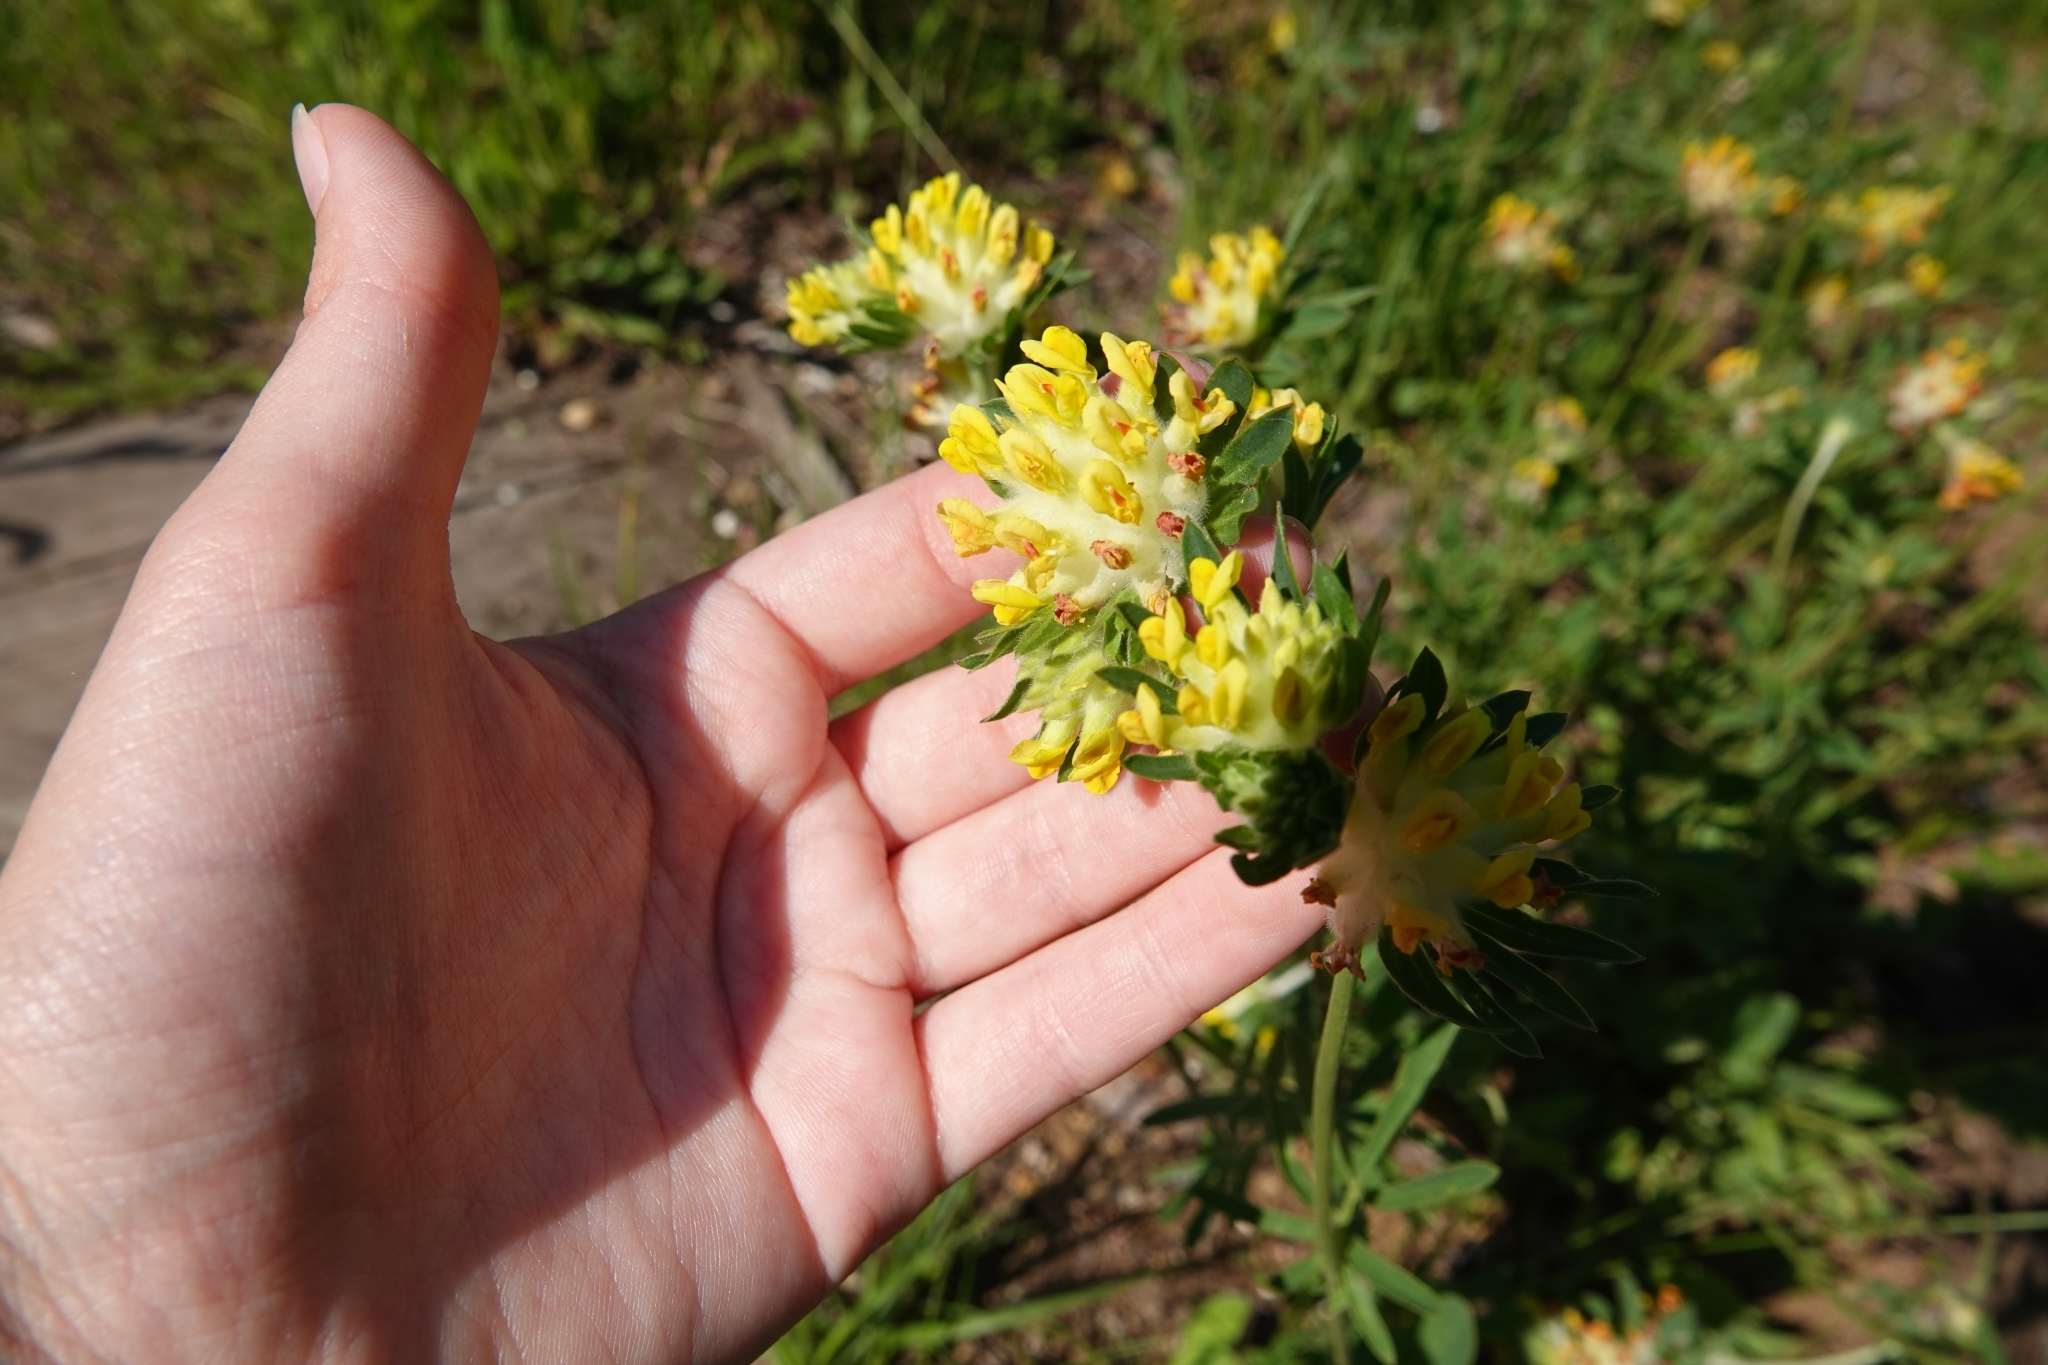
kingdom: Plantae
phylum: Tracheophyta
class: Magnoliopsida
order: Fabales
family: Fabaceae
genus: Anthyllis
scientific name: Anthyllis vulneraria
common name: Kidney vetch
